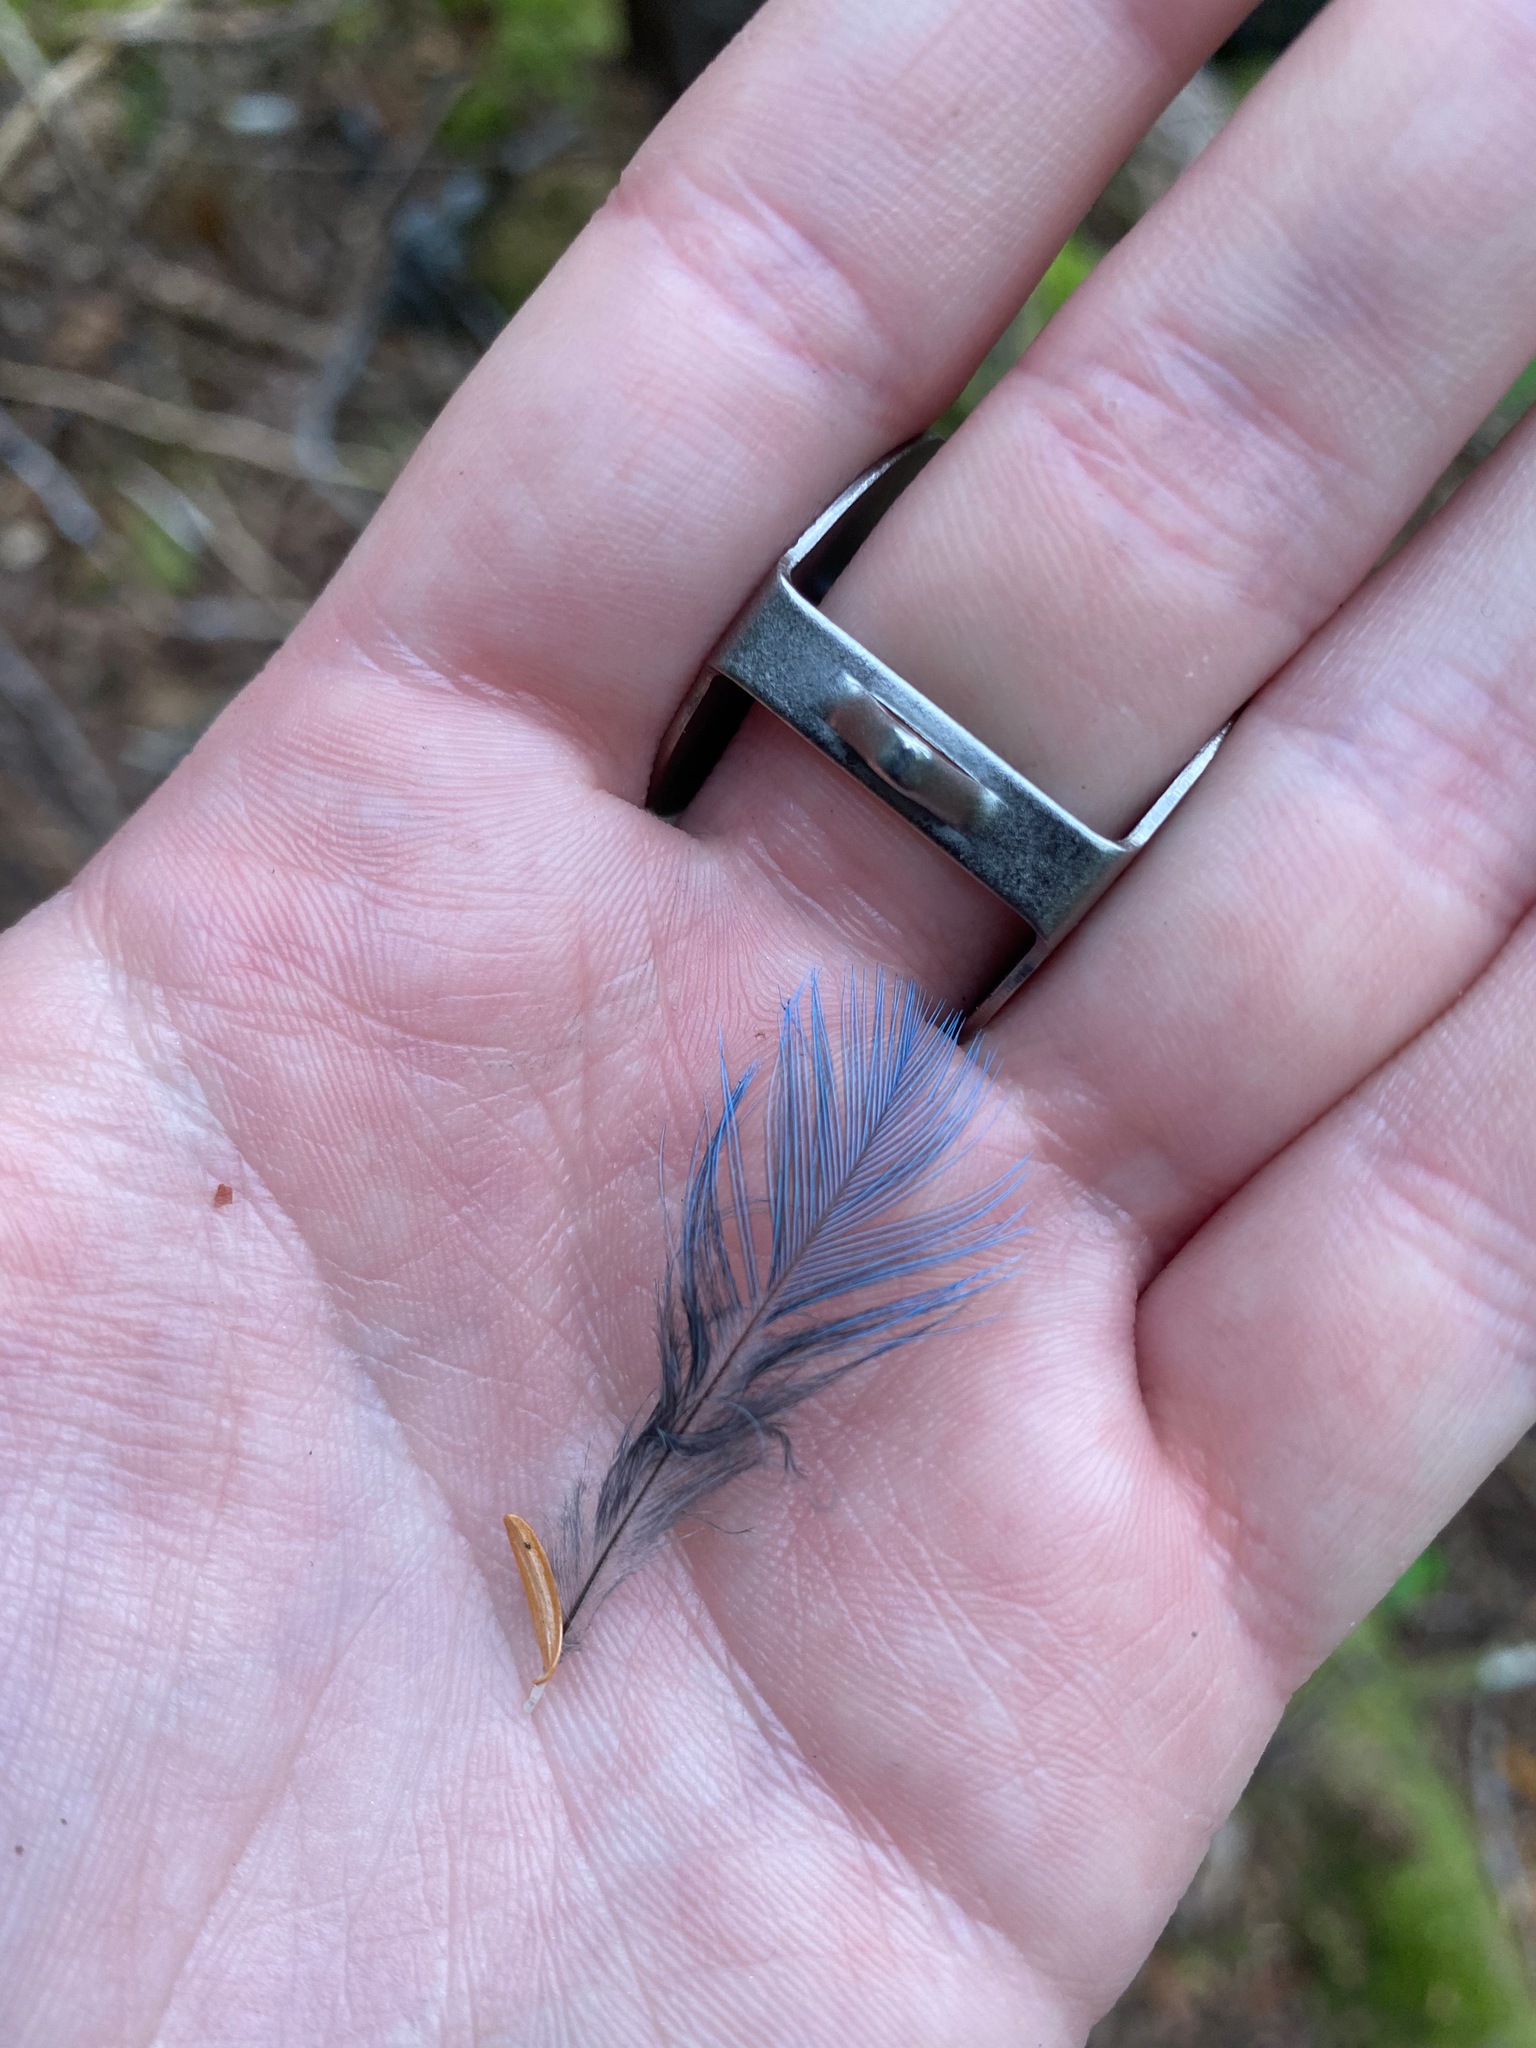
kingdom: Animalia
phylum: Chordata
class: Aves
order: Passeriformes
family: Corvidae
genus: Cyanocitta
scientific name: Cyanocitta stelleri
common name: Steller's jay
